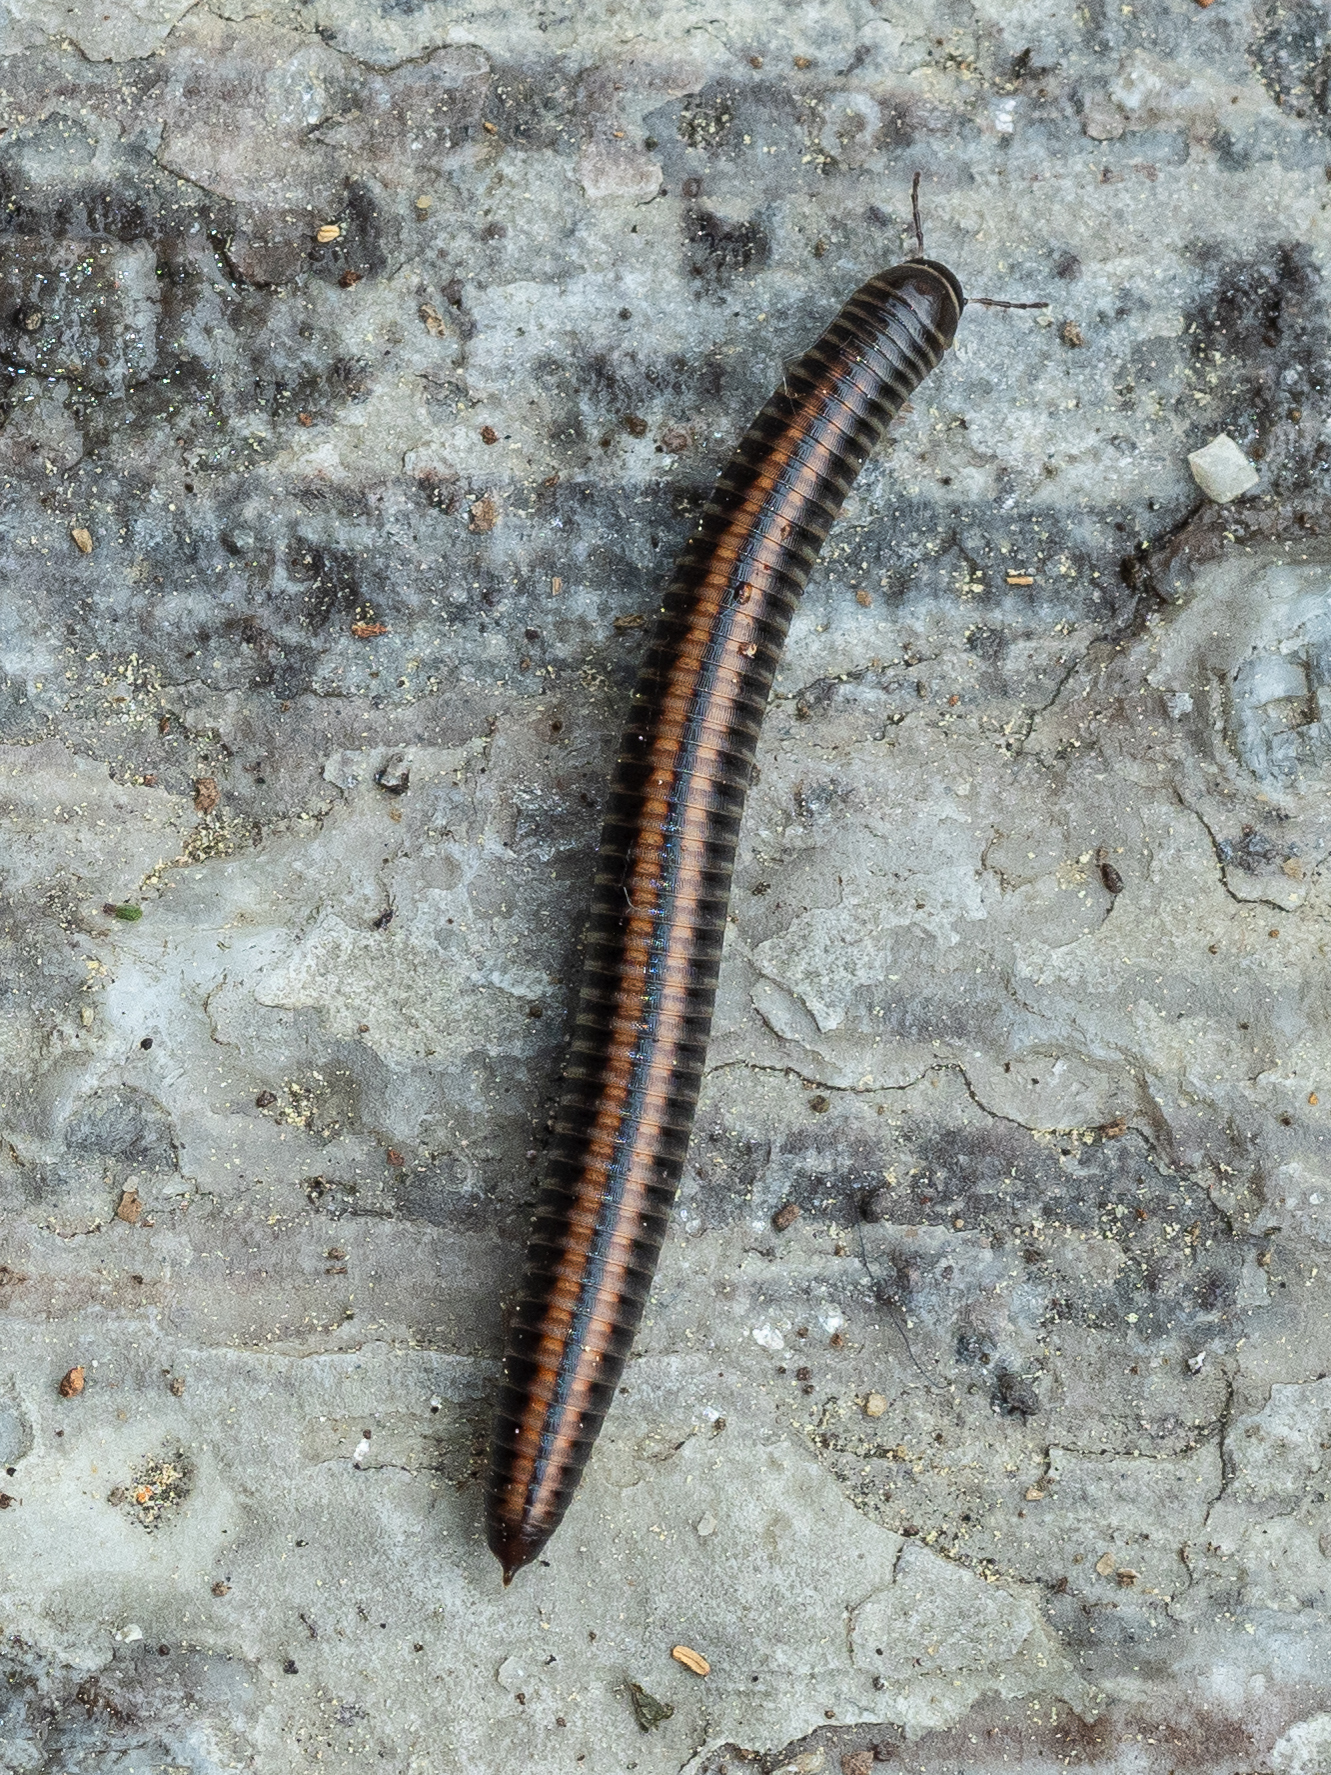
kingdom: Animalia
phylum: Arthropoda
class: Diplopoda
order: Julida
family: Julidae
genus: Ommatoiulus
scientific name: Ommatoiulus sabulosus
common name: Striped millipede
